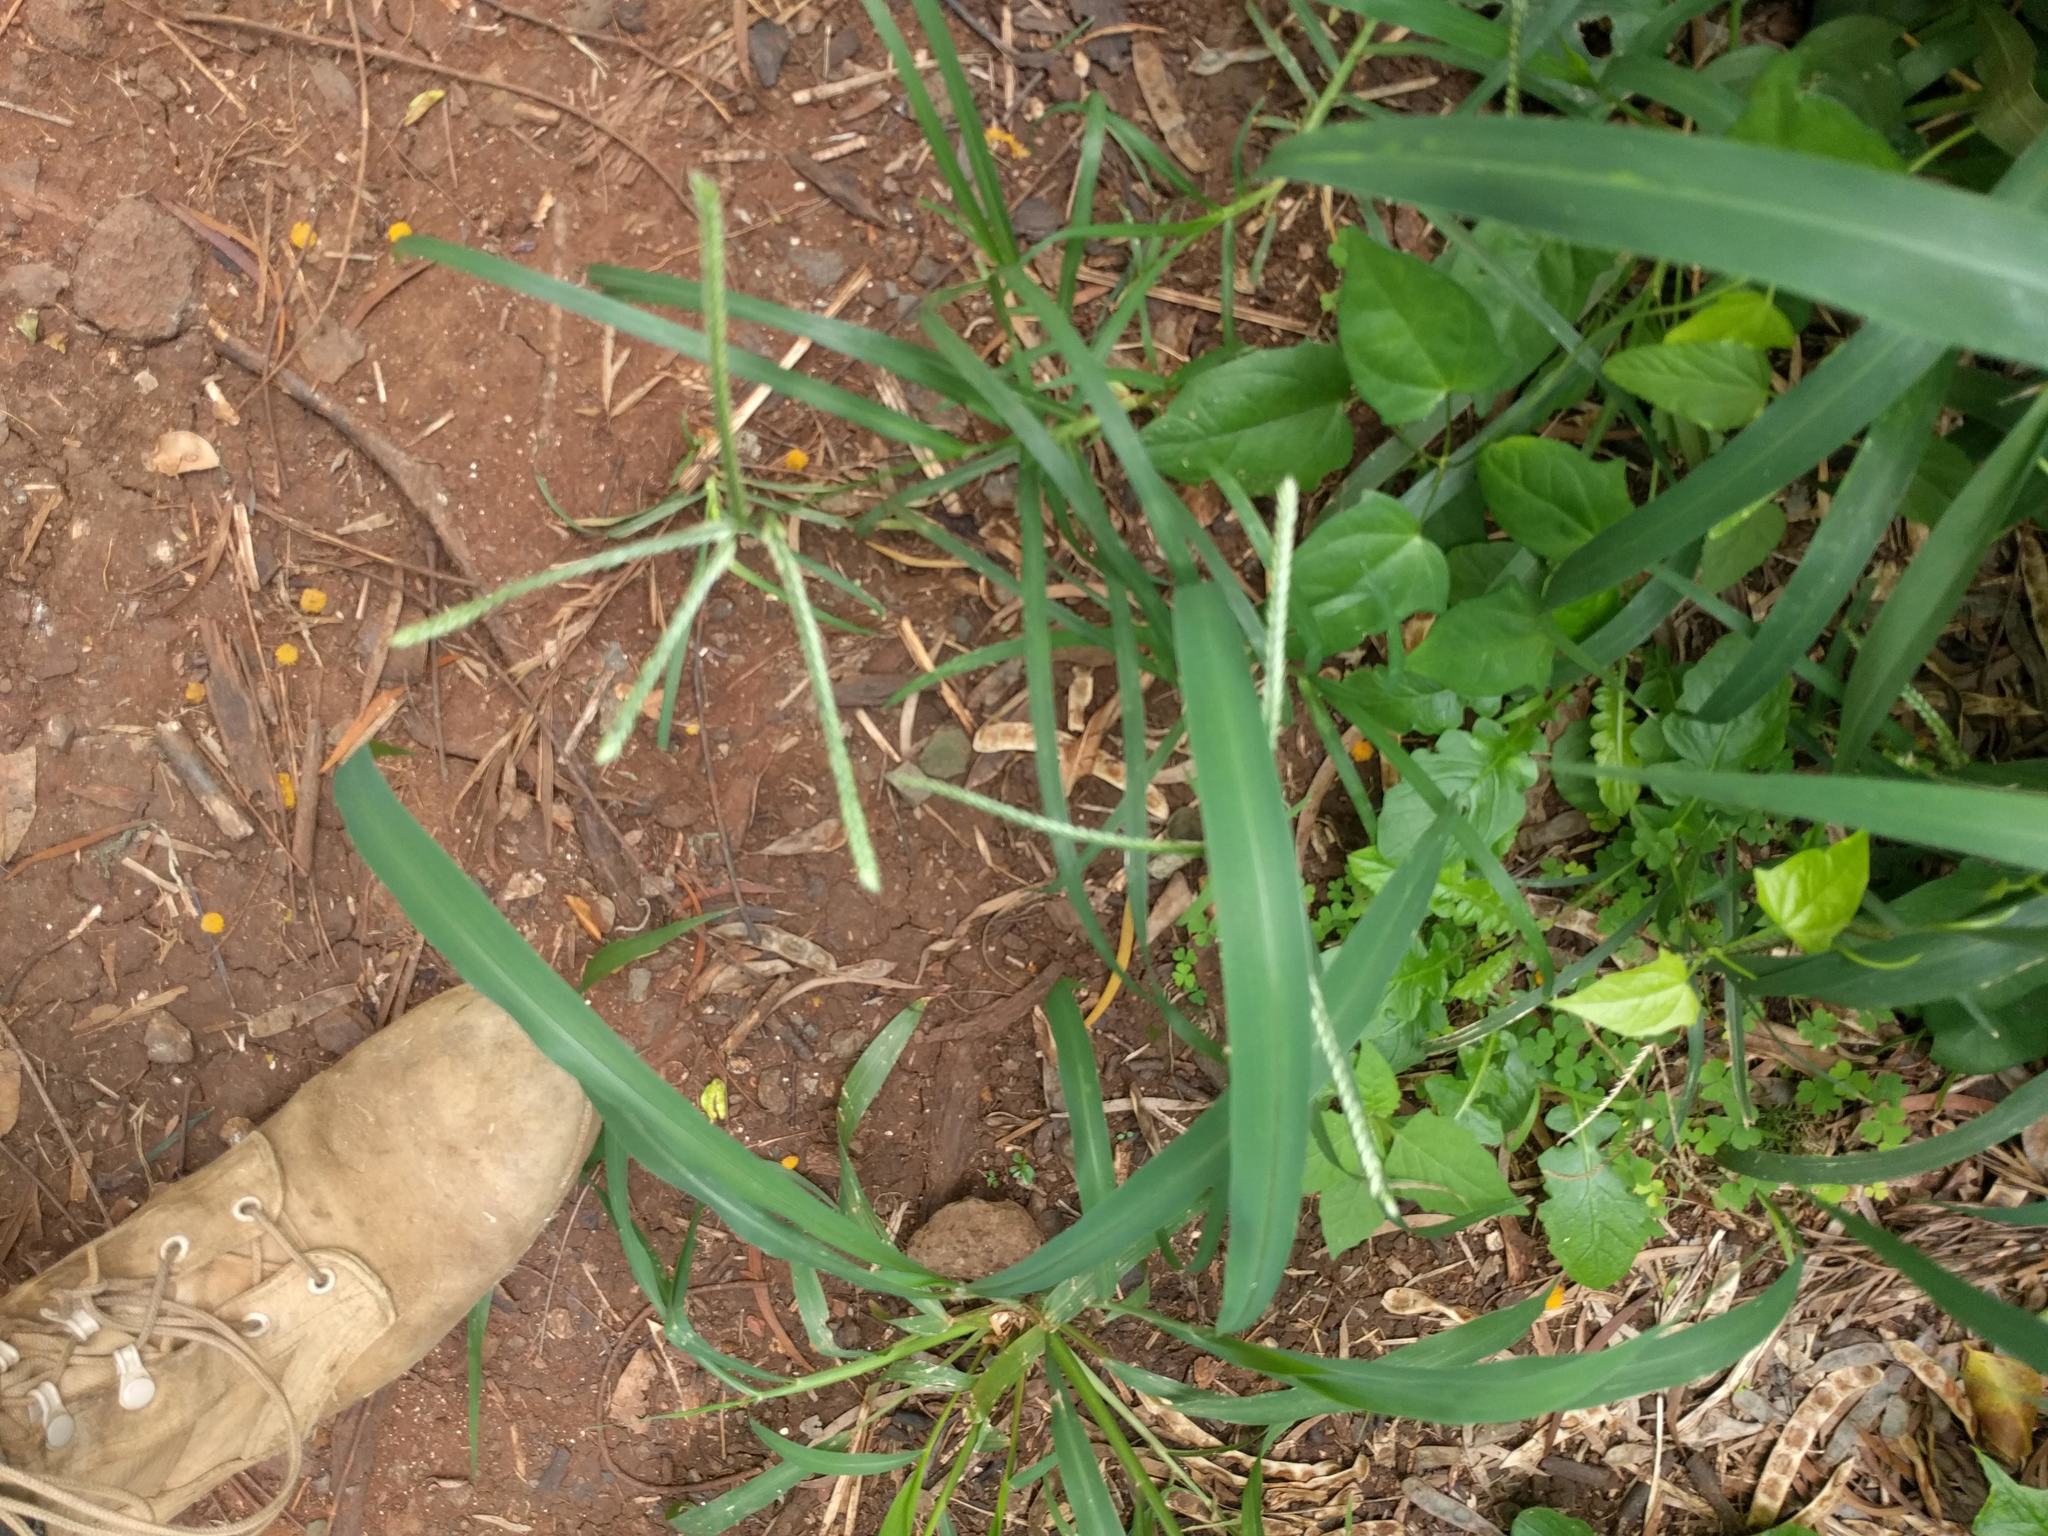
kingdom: Plantae
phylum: Tracheophyta
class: Liliopsida
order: Poales
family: Poaceae
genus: Eleusine
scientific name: Eleusine indica
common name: Yard-grass
